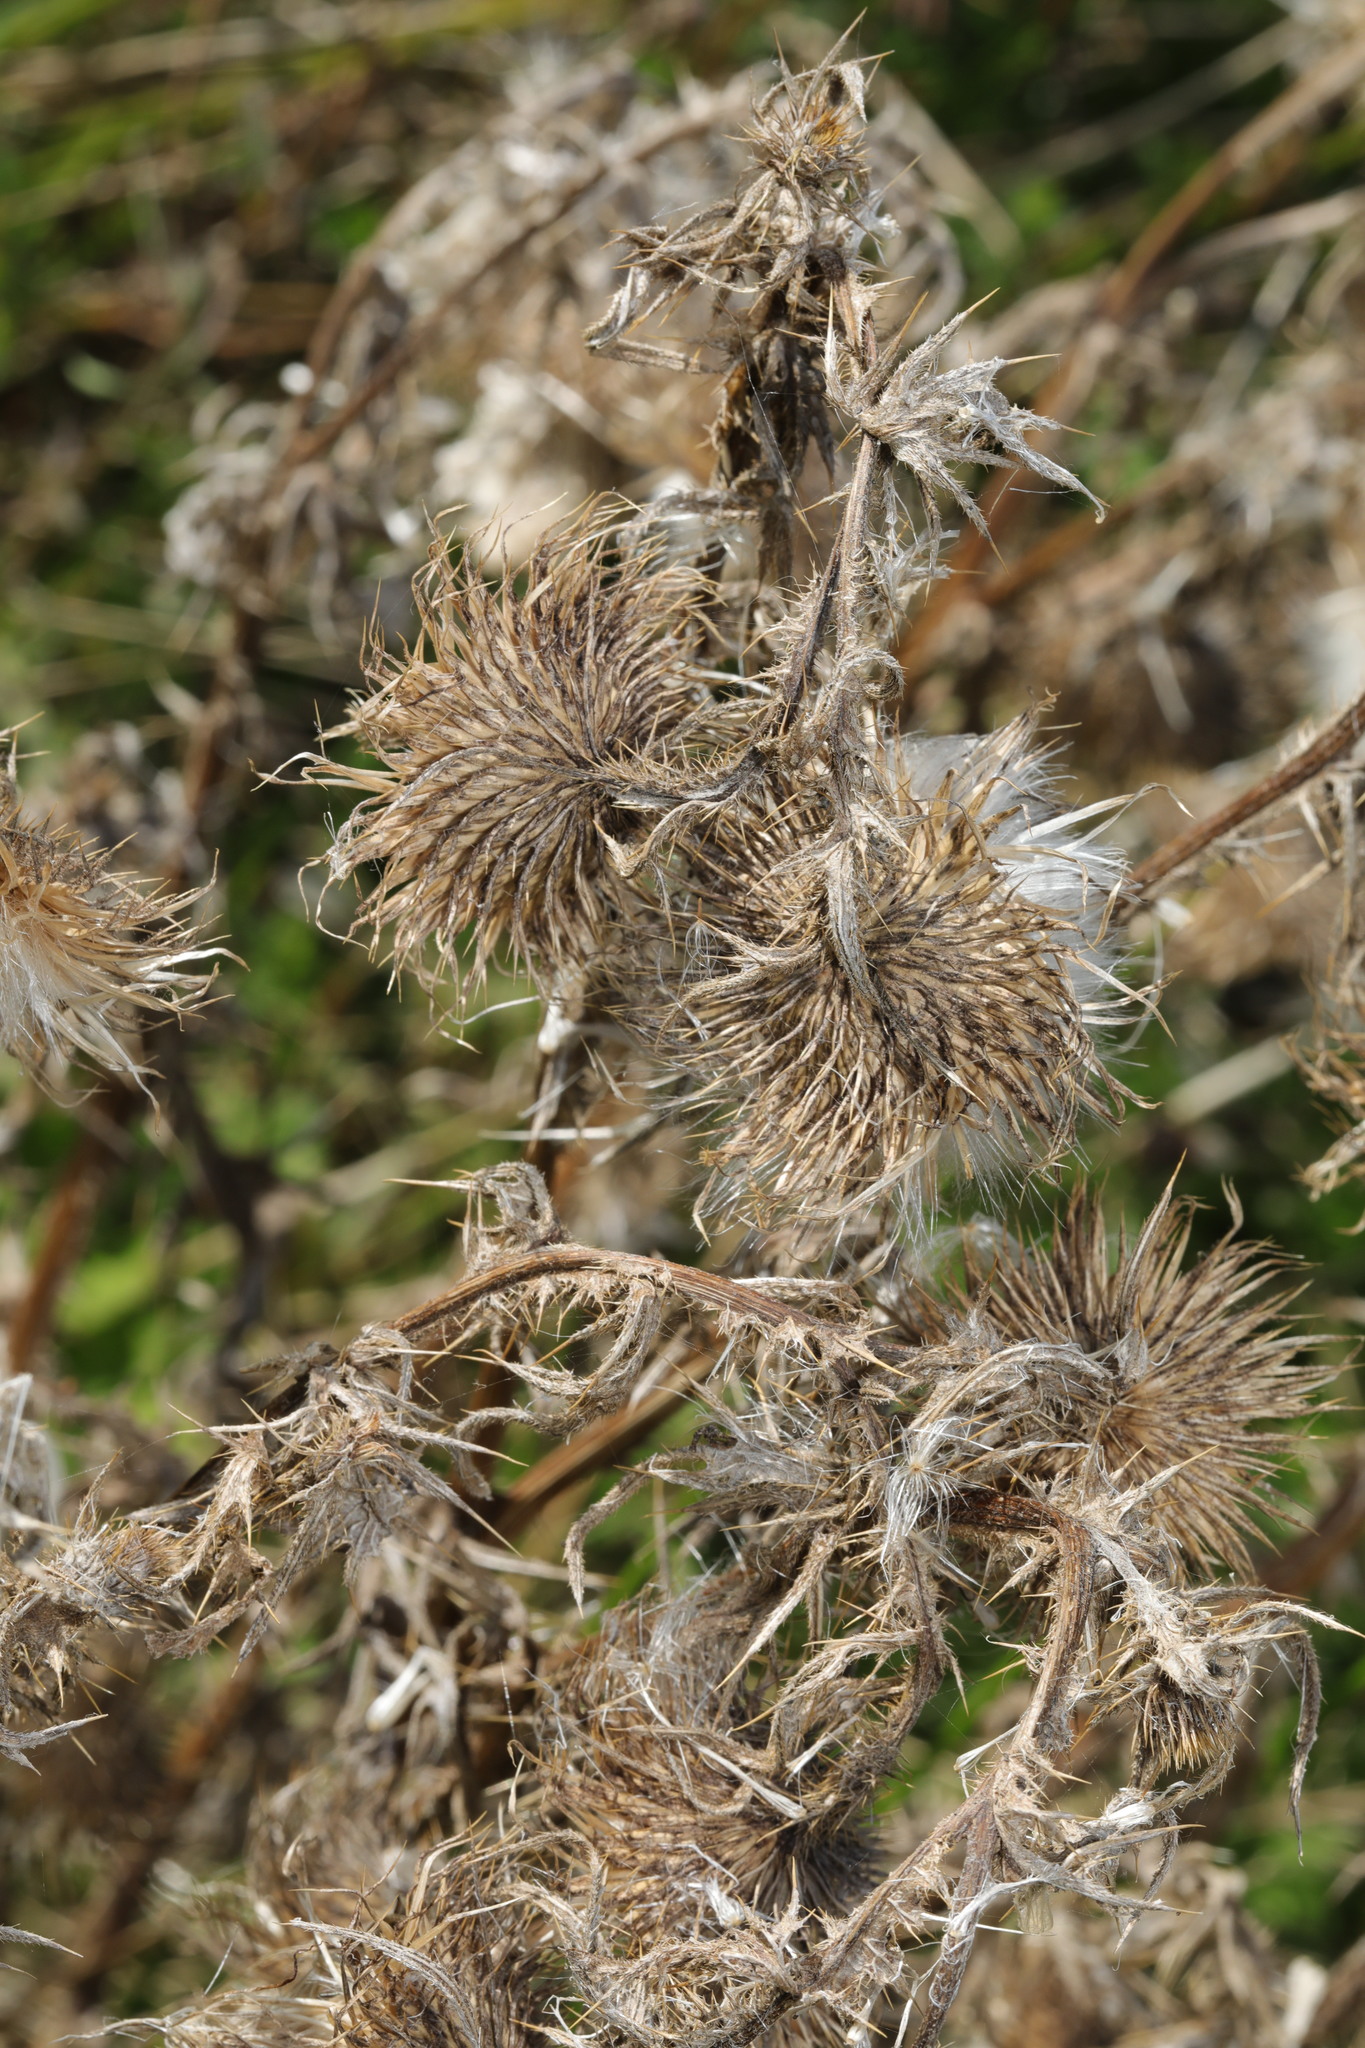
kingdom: Plantae
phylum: Tracheophyta
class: Magnoliopsida
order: Asterales
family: Asteraceae
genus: Cirsium
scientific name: Cirsium vulgare
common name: Bull thistle
